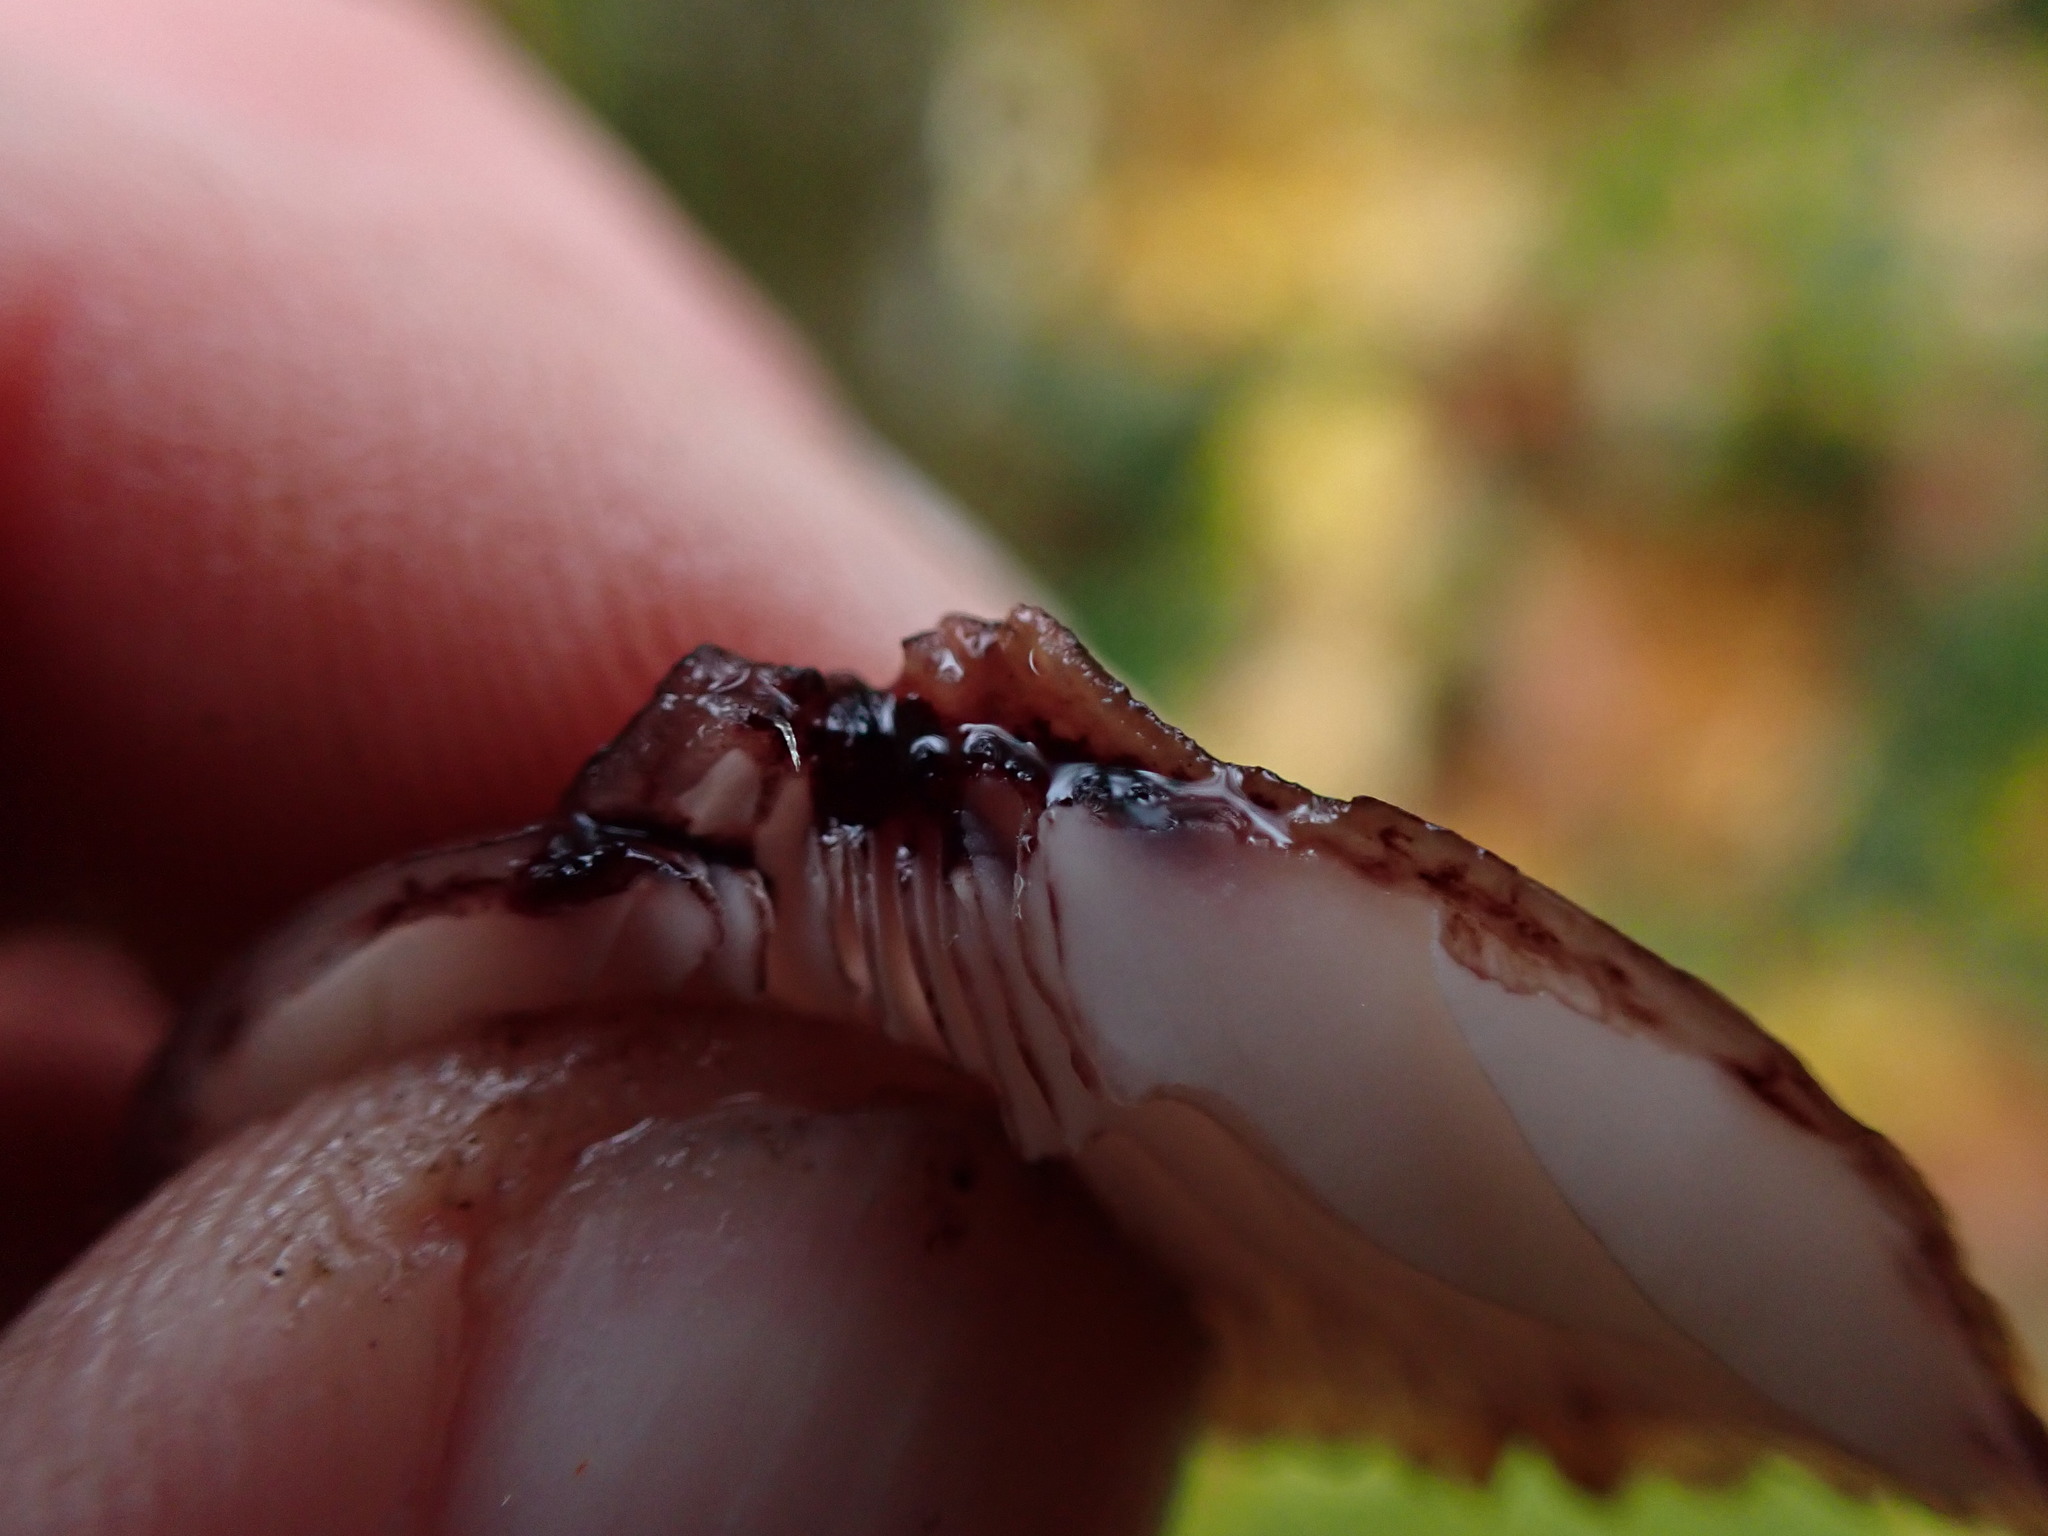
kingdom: Fungi
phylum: Basidiomycota
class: Agaricomycetes
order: Agaricales
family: Mycenaceae
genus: Mycena
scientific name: Mycena haematopus
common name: Burgundydrop bonnet
